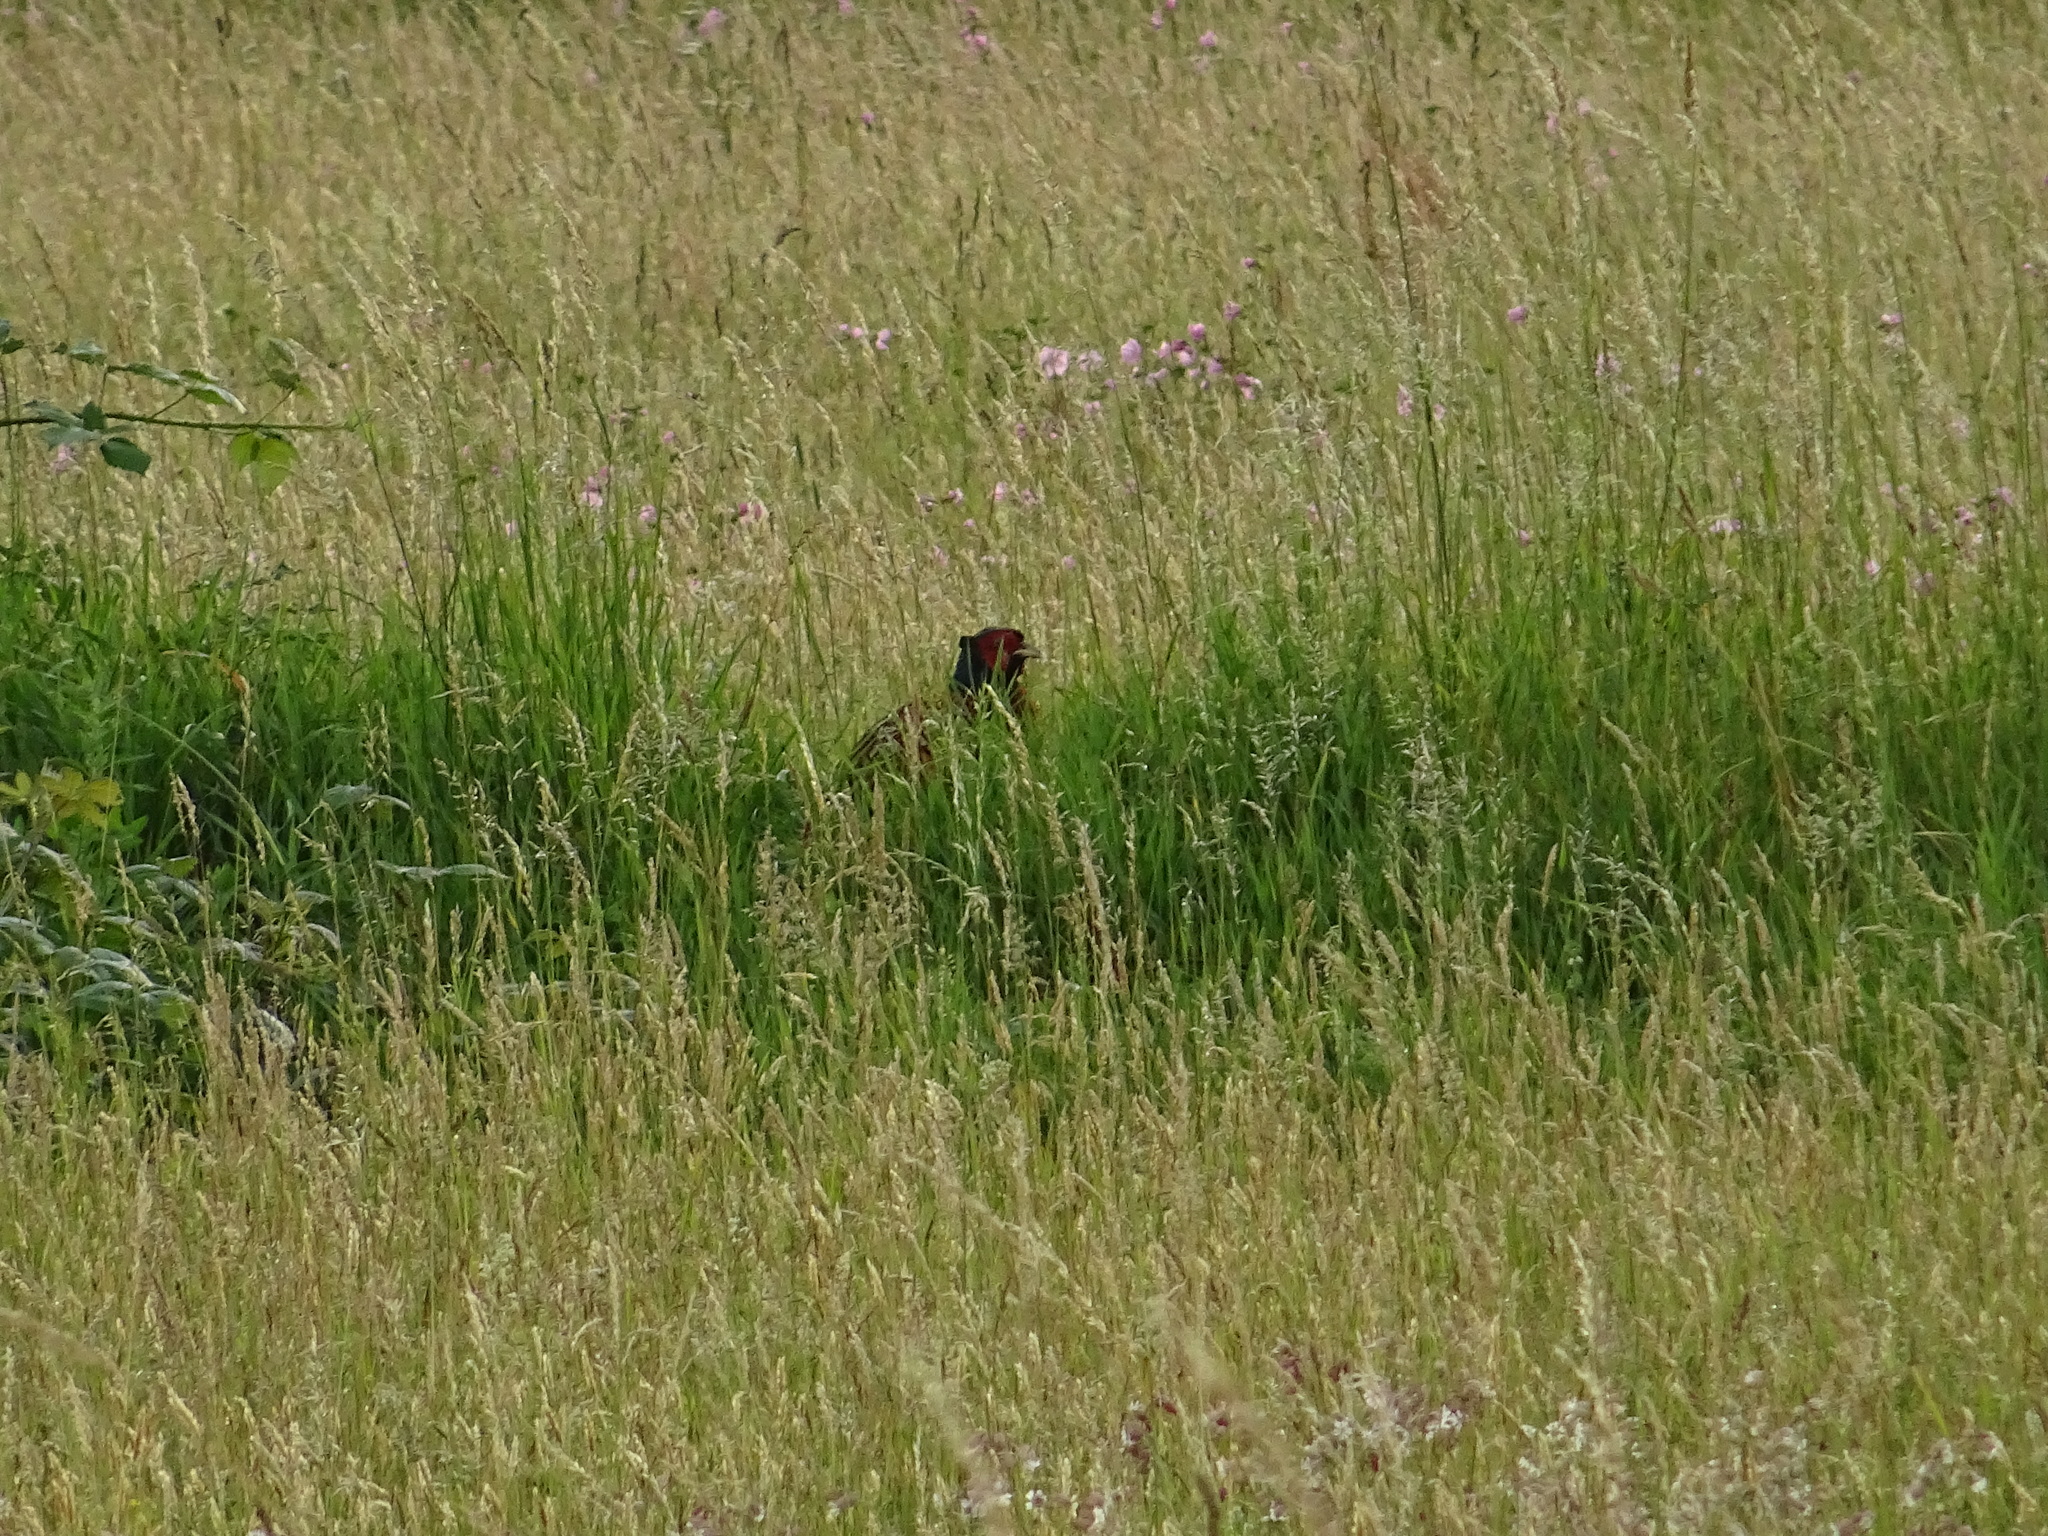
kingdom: Animalia
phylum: Chordata
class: Aves
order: Galliformes
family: Phasianidae
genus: Phasianus
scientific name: Phasianus colchicus
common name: Common pheasant
